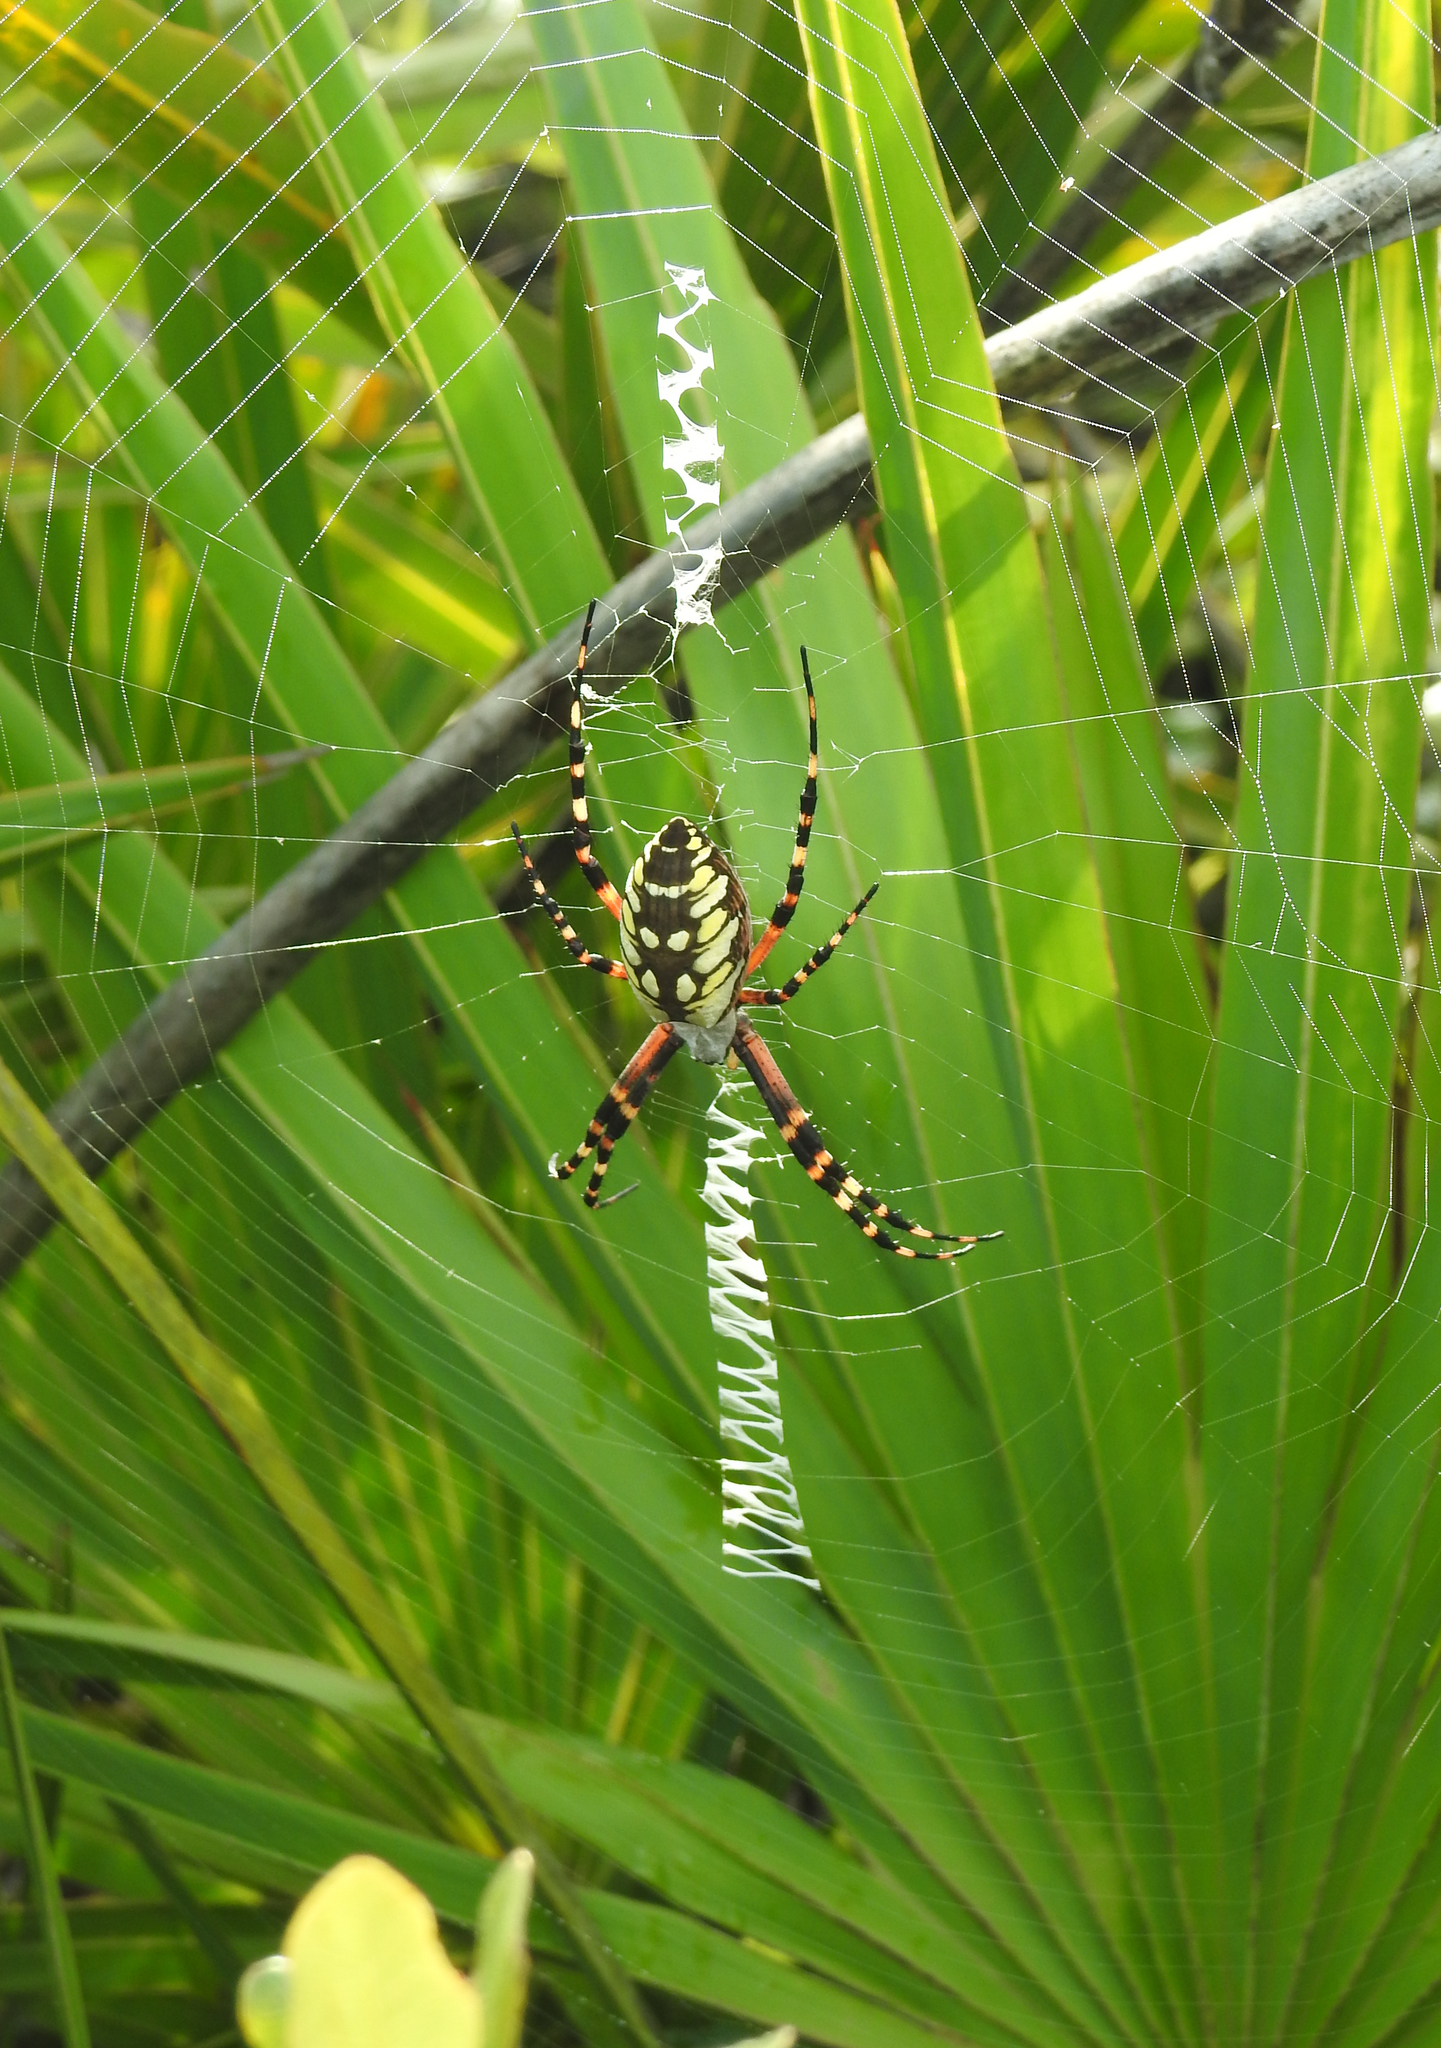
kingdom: Animalia
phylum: Arthropoda
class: Arachnida
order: Araneae
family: Araneidae
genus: Argiope
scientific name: Argiope aurantia
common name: Orb weavers
